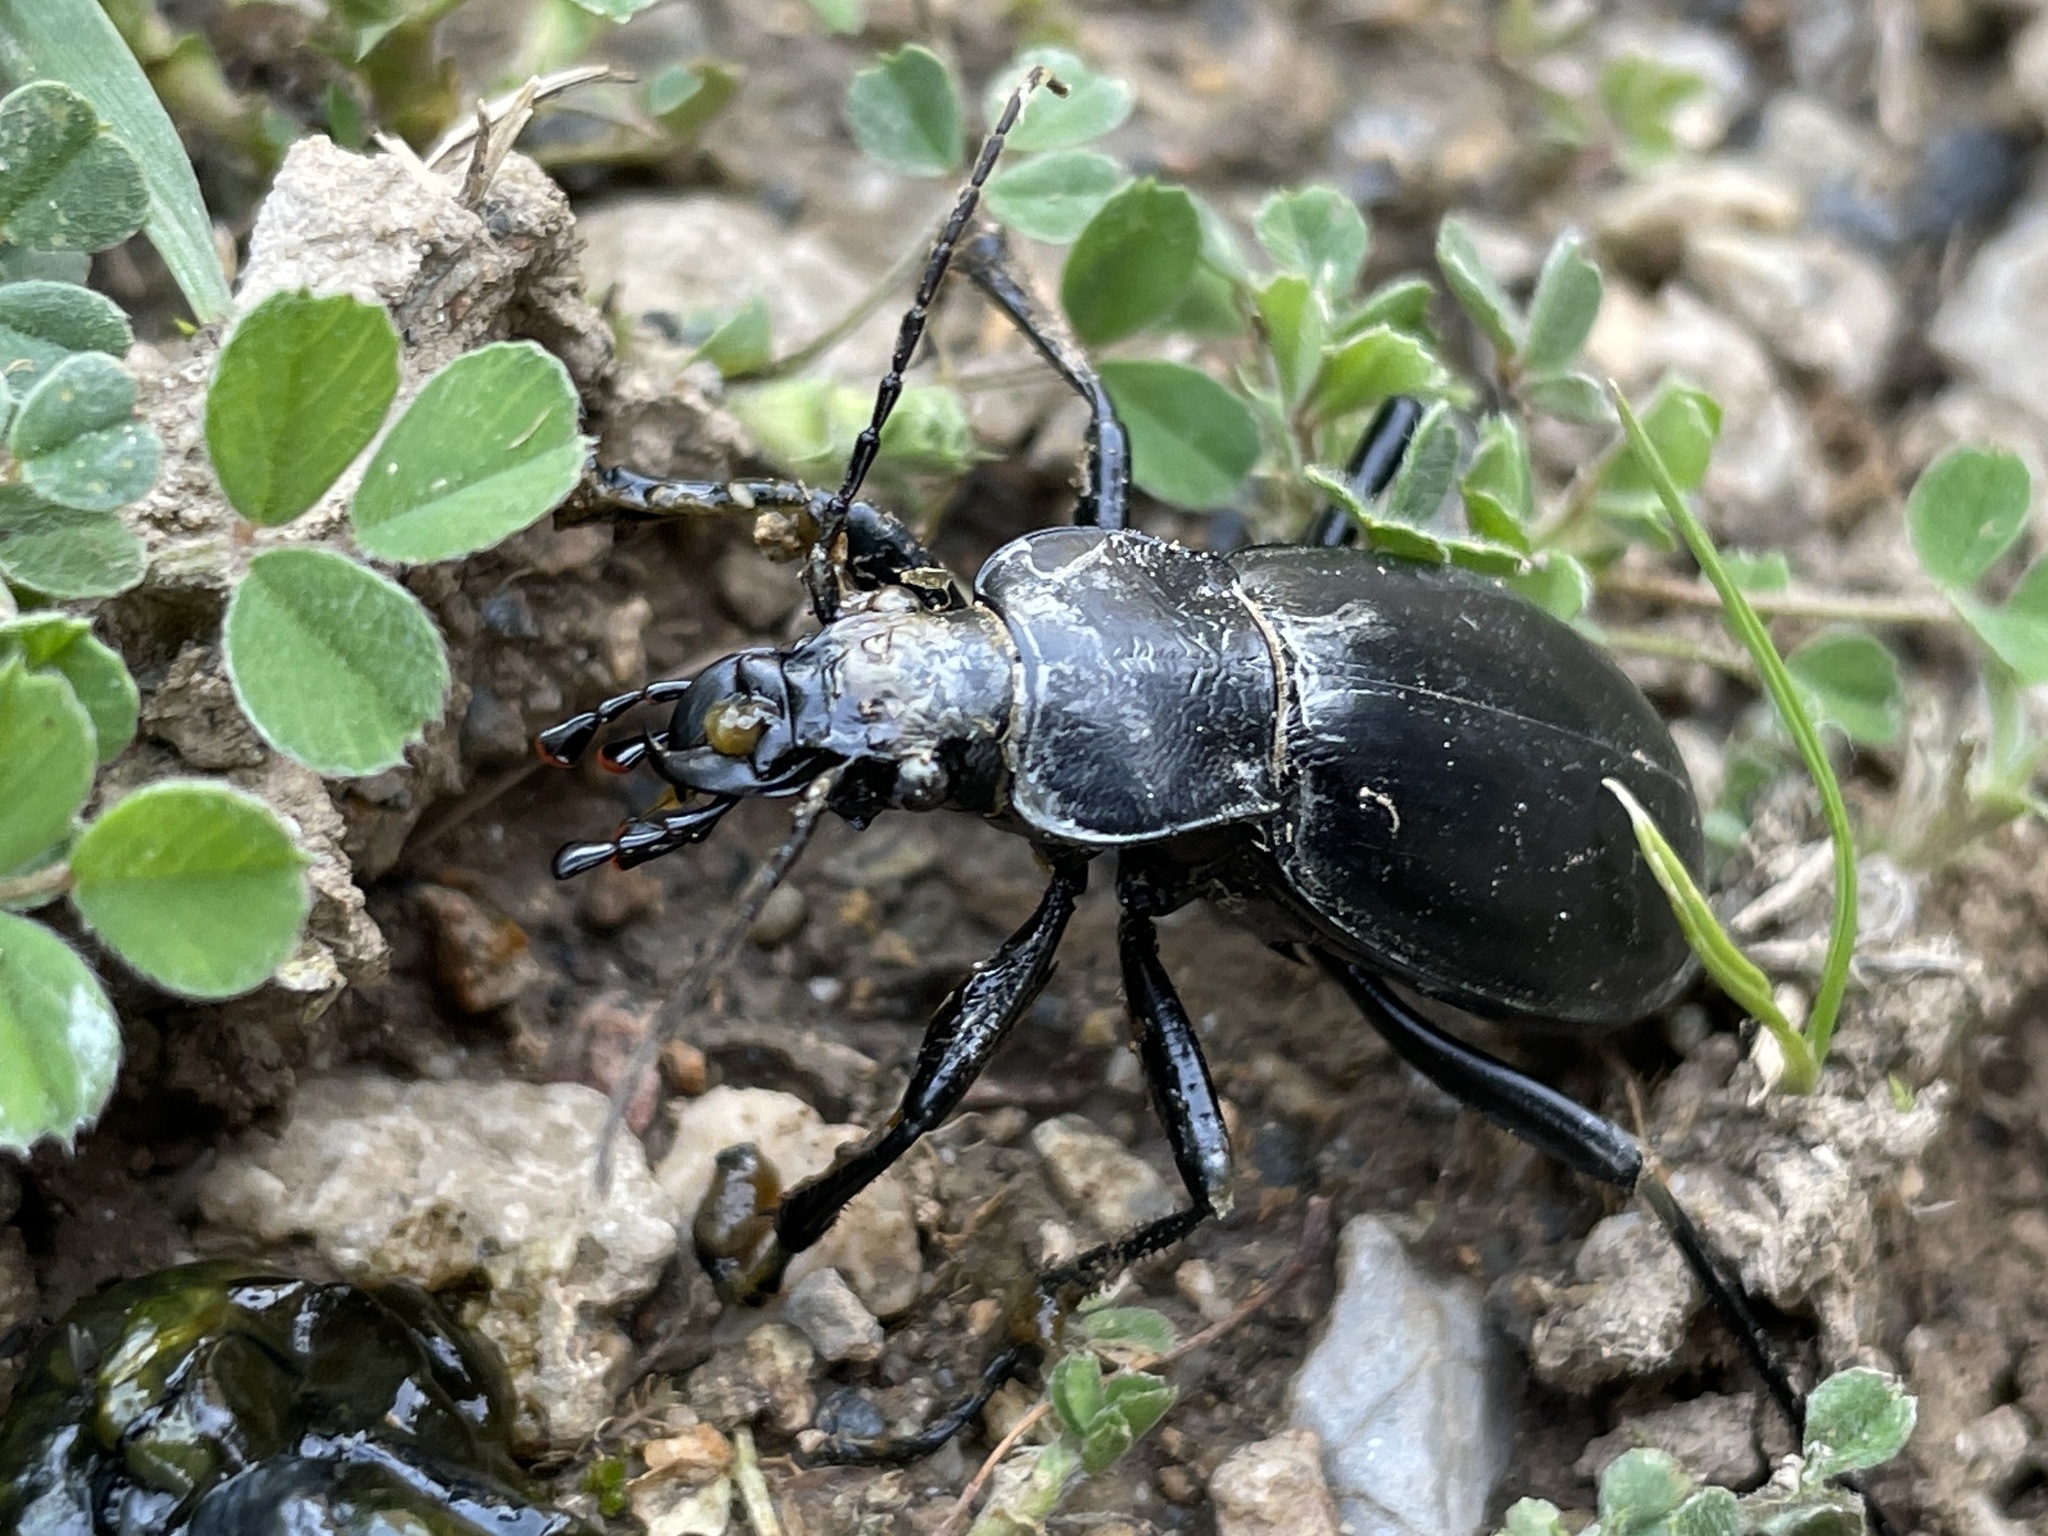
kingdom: Animalia
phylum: Arthropoda
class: Insecta
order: Coleoptera
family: Carabidae
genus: Carabus
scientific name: Carabus stschurowskii
